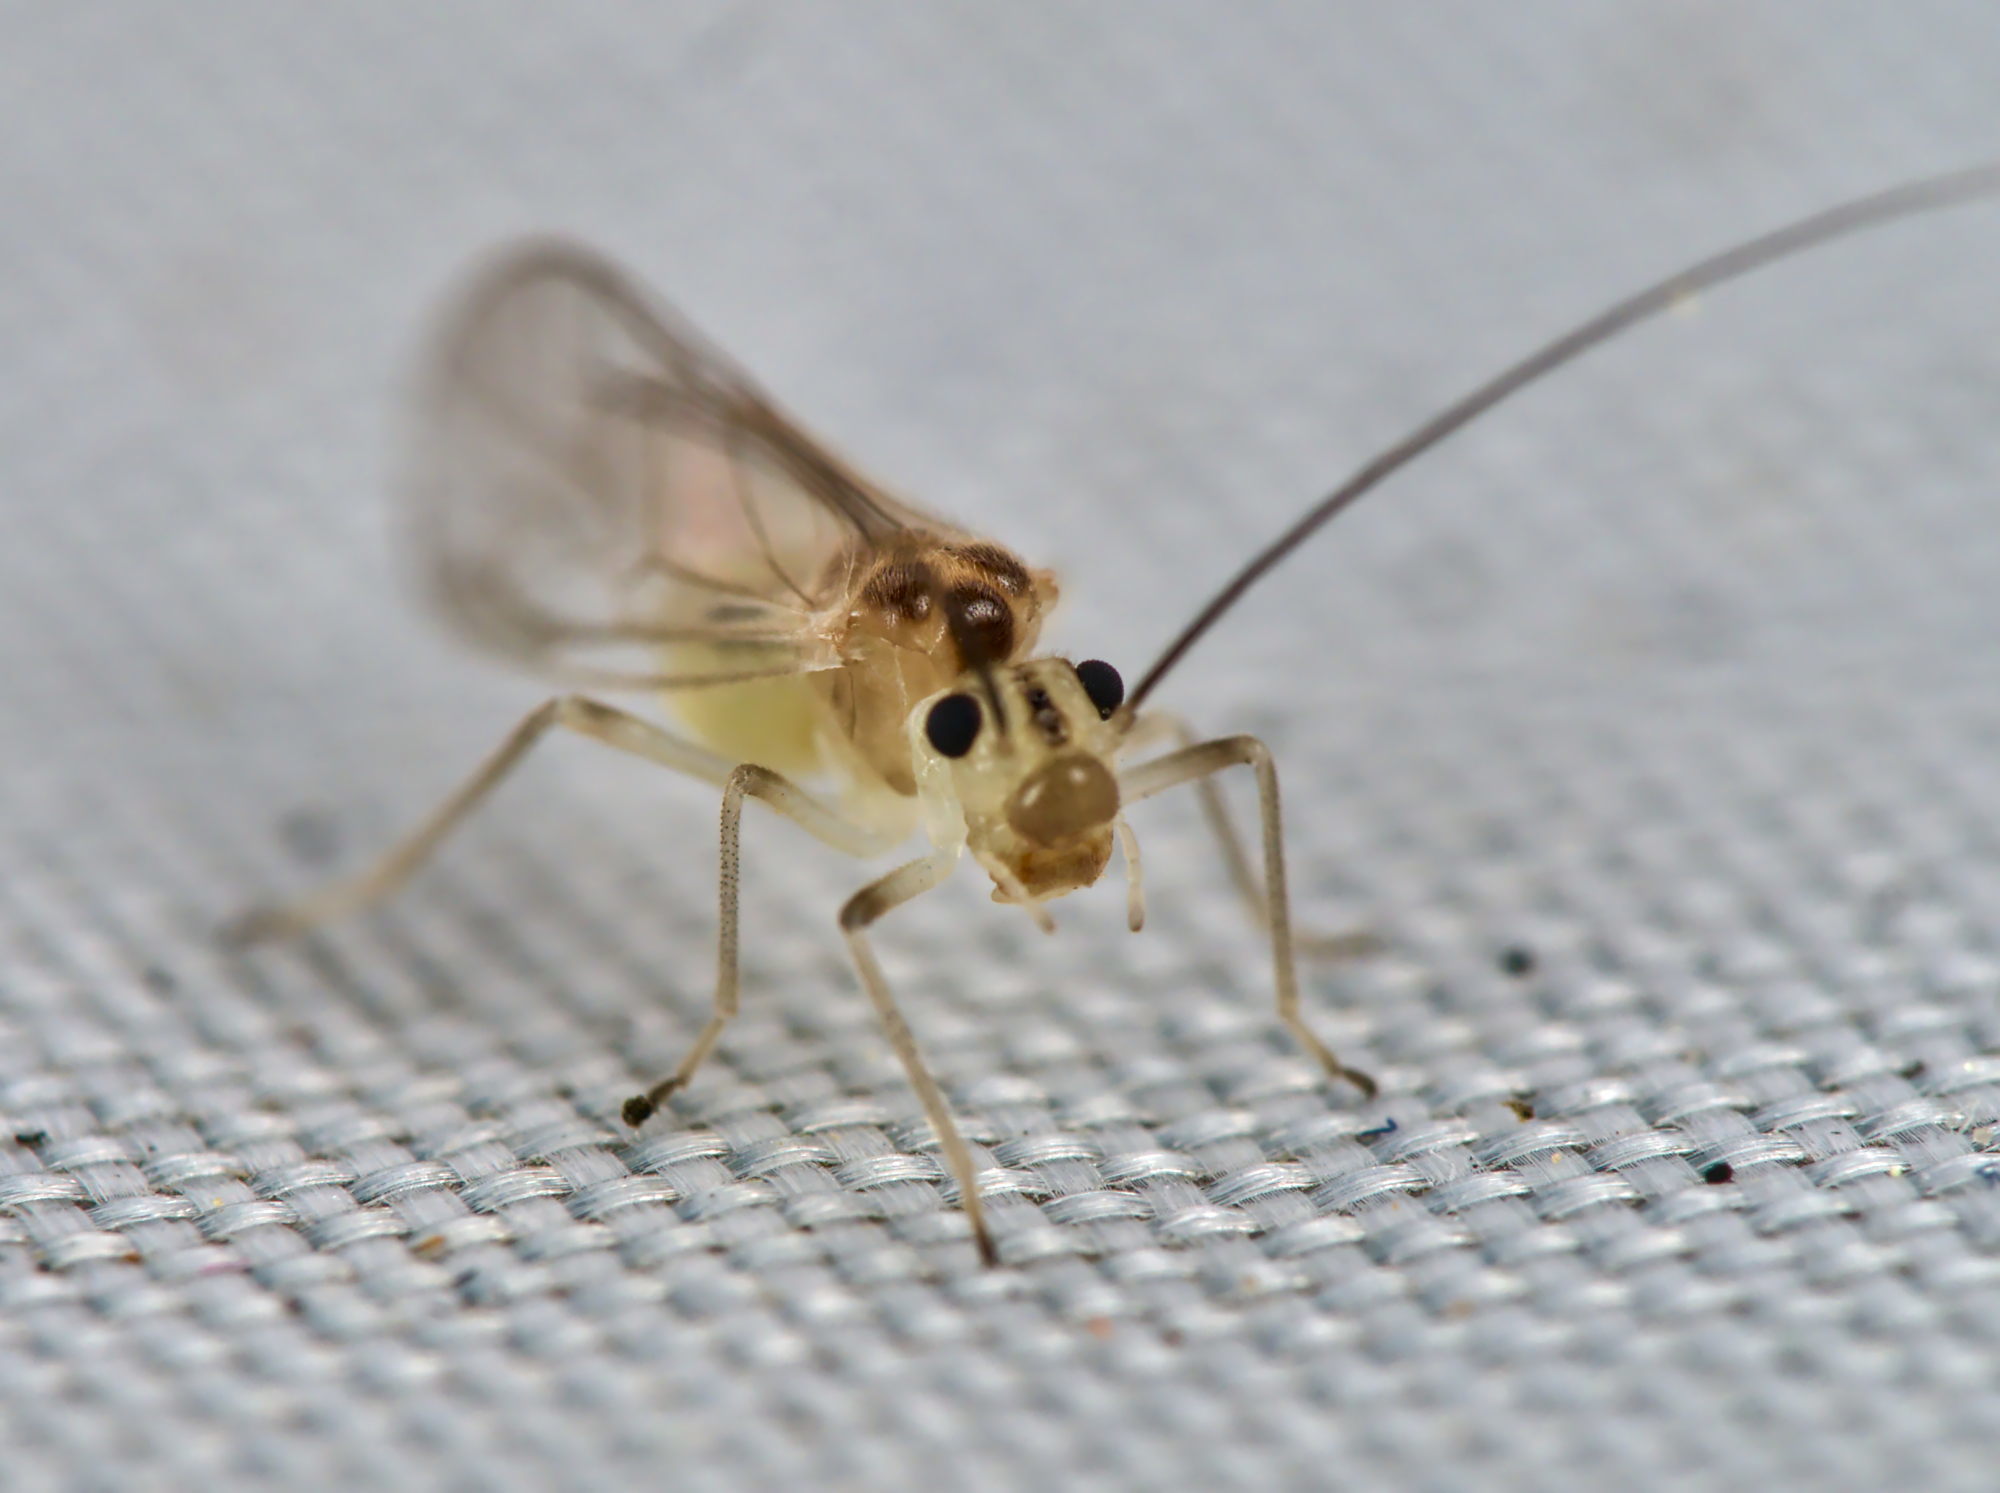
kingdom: Animalia
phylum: Arthropoda
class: Insecta
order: Psocodea
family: Stenopsocidae
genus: Stenopsocus
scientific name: Stenopsocus immaculatus
